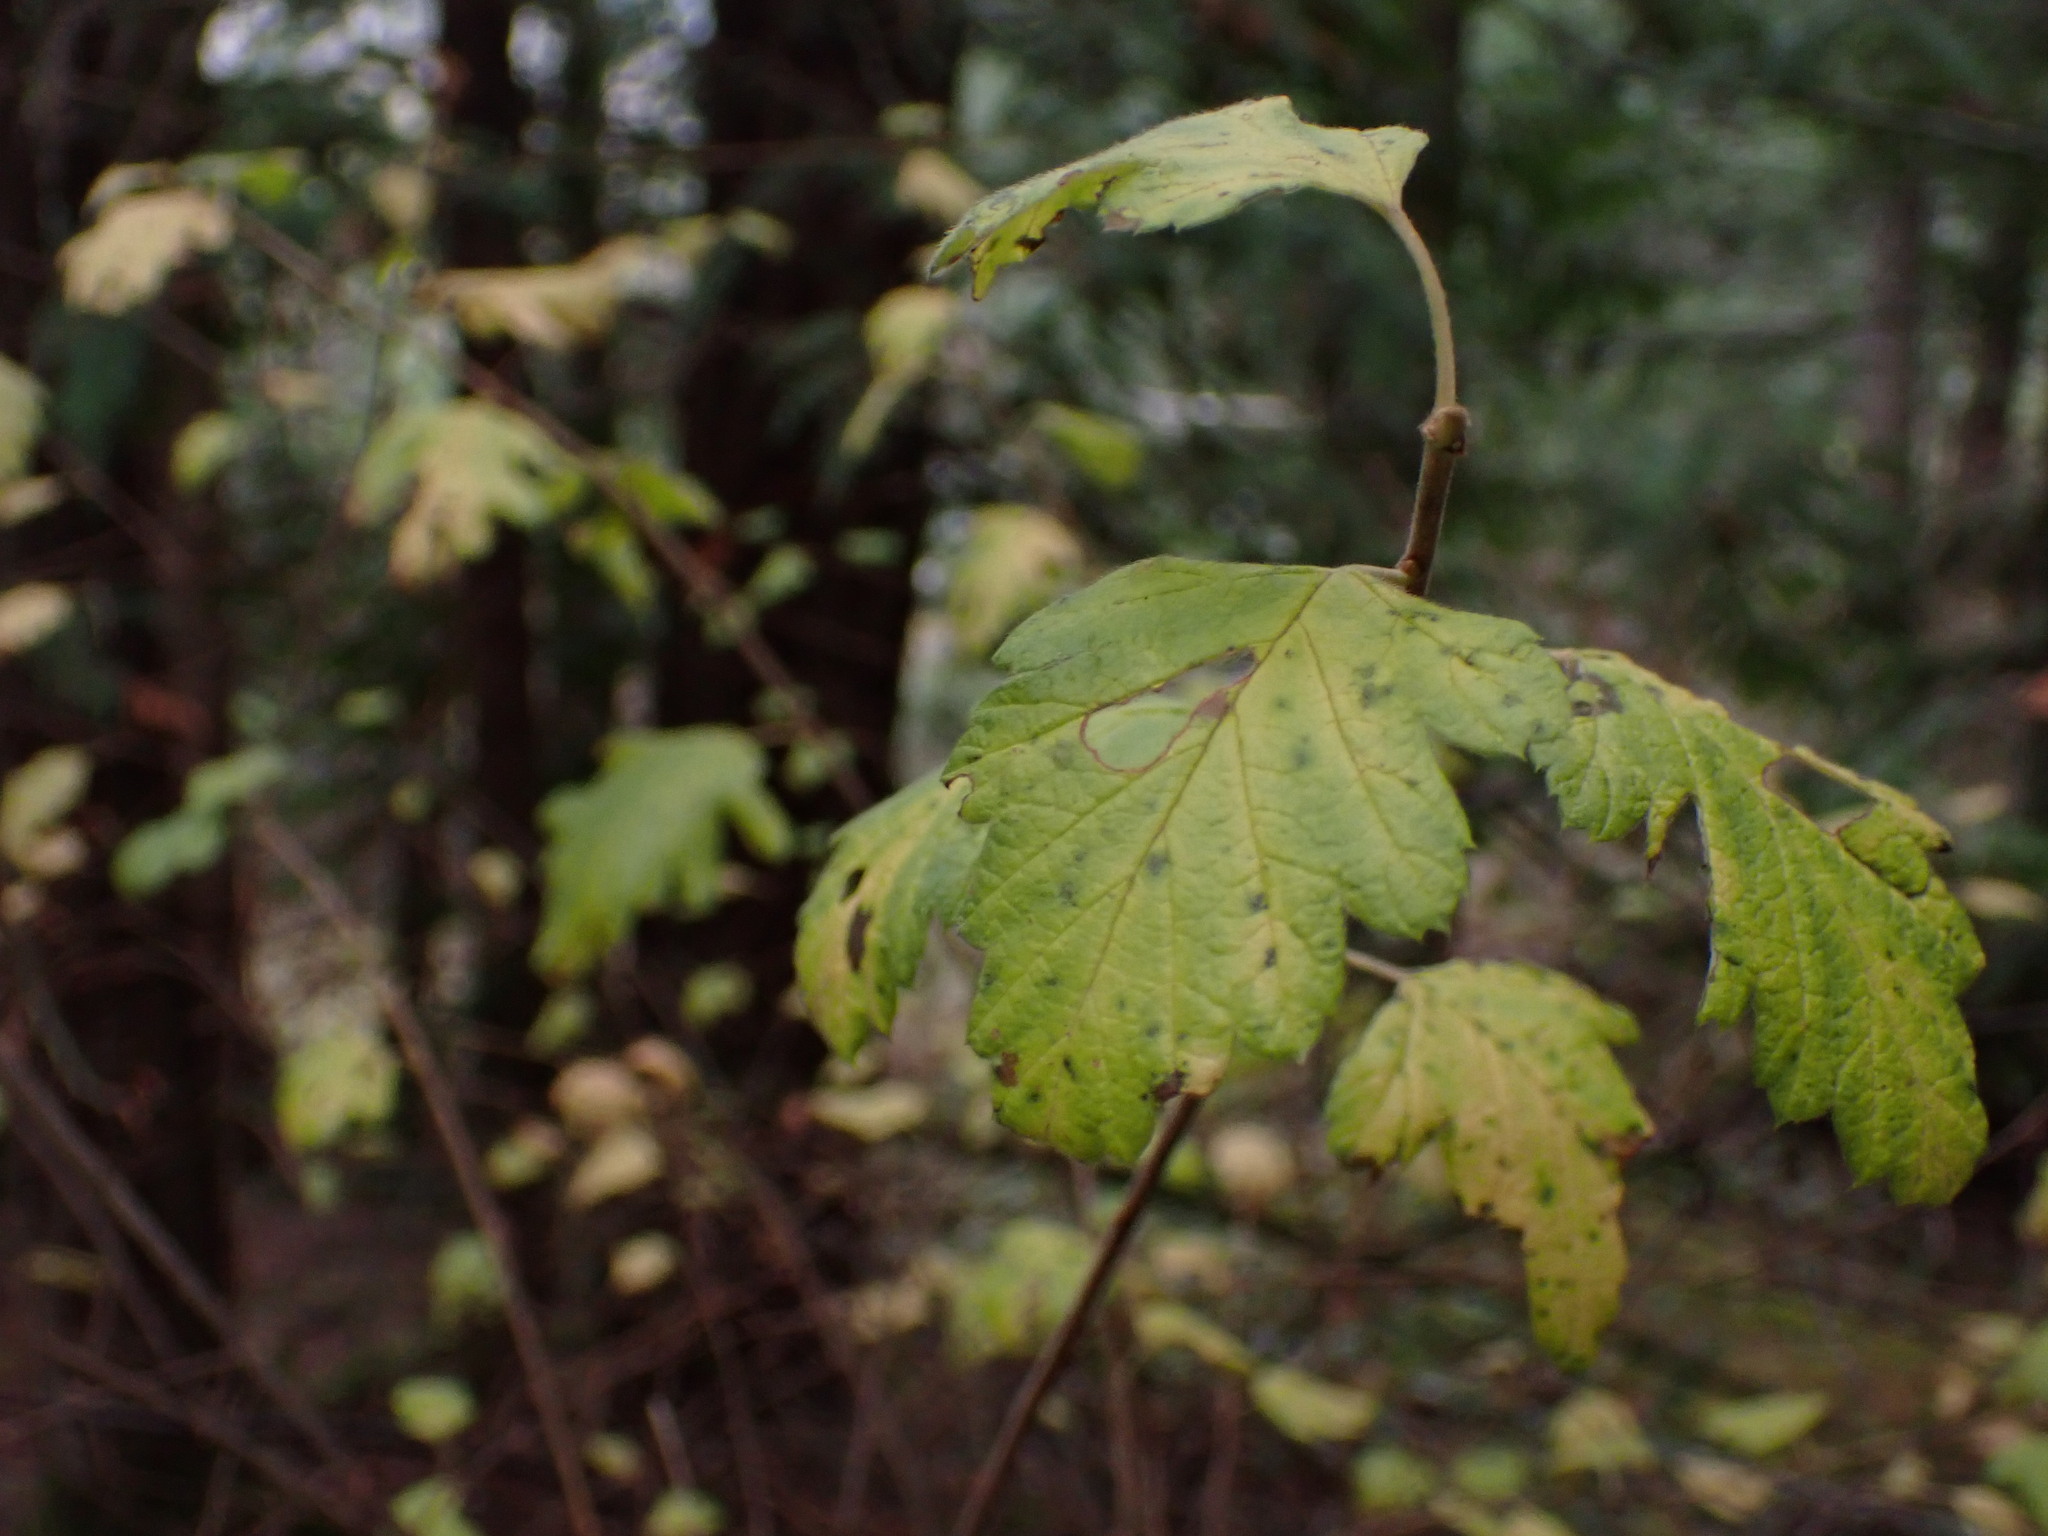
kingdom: Plantae
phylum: Tracheophyta
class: Magnoliopsida
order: Rosales
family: Rosaceae
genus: Holodiscus
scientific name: Holodiscus discolor
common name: Oceanspray
